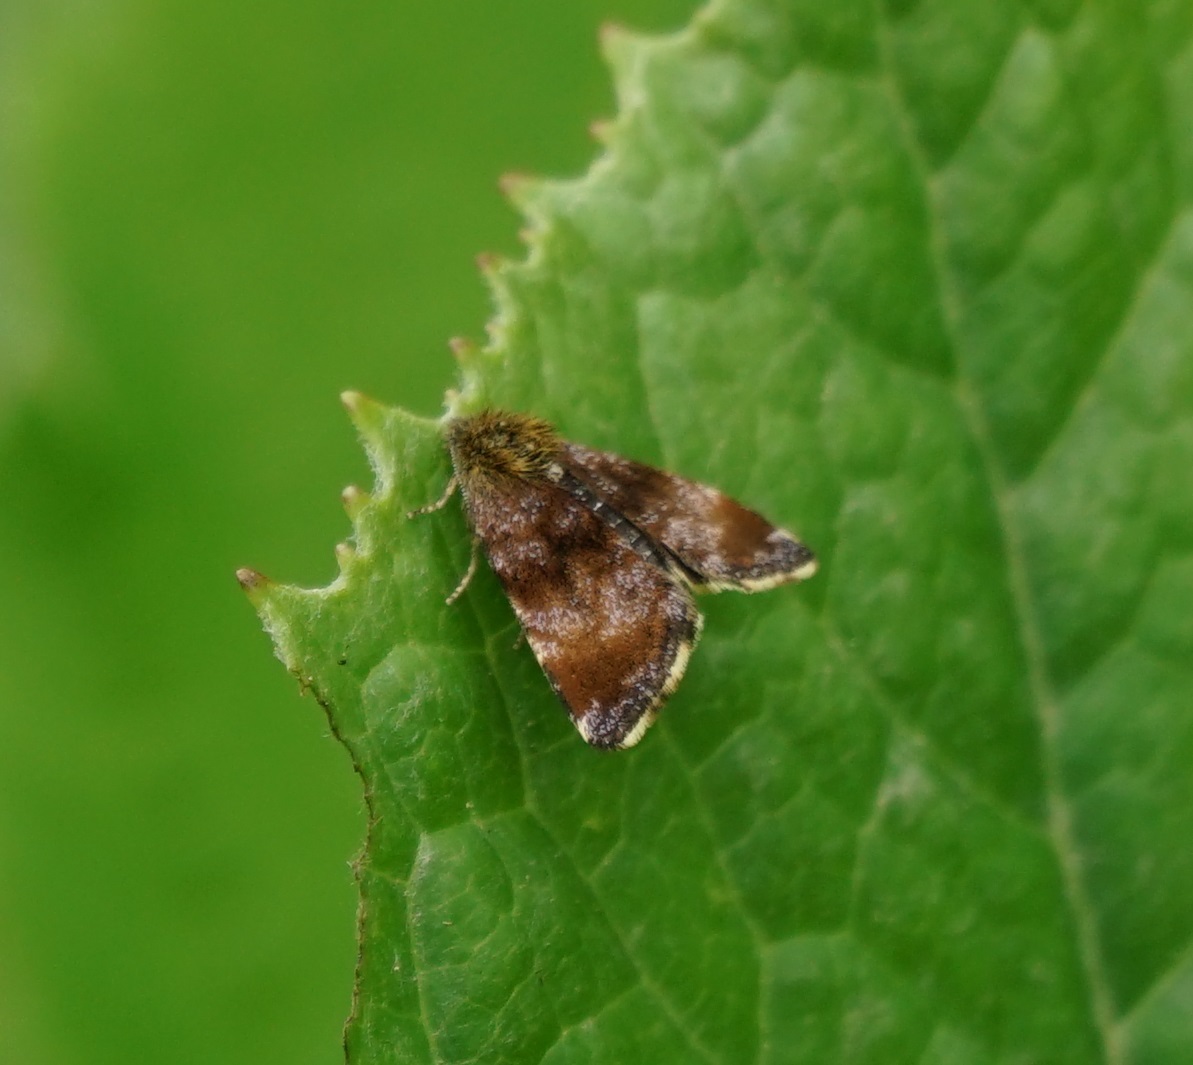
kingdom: Animalia
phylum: Arthropoda
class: Insecta
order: Lepidoptera
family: Noctuidae
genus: Panemeria
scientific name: Panemeria tenebrata
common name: Small yellow underwing
